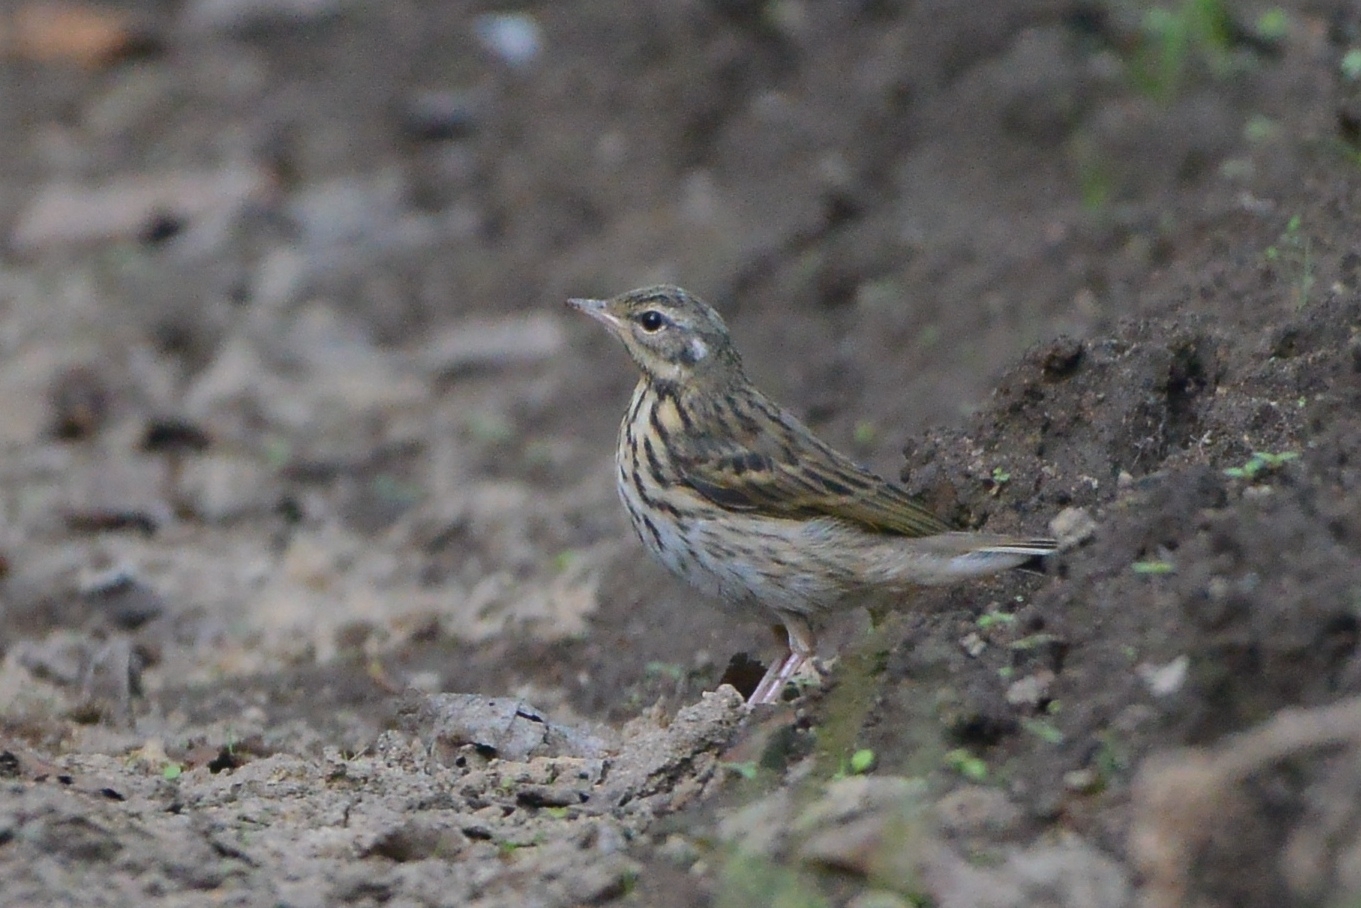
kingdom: Animalia
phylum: Chordata
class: Aves
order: Passeriformes
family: Motacillidae
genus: Anthus
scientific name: Anthus hodgsoni
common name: Olive-backed pipit
